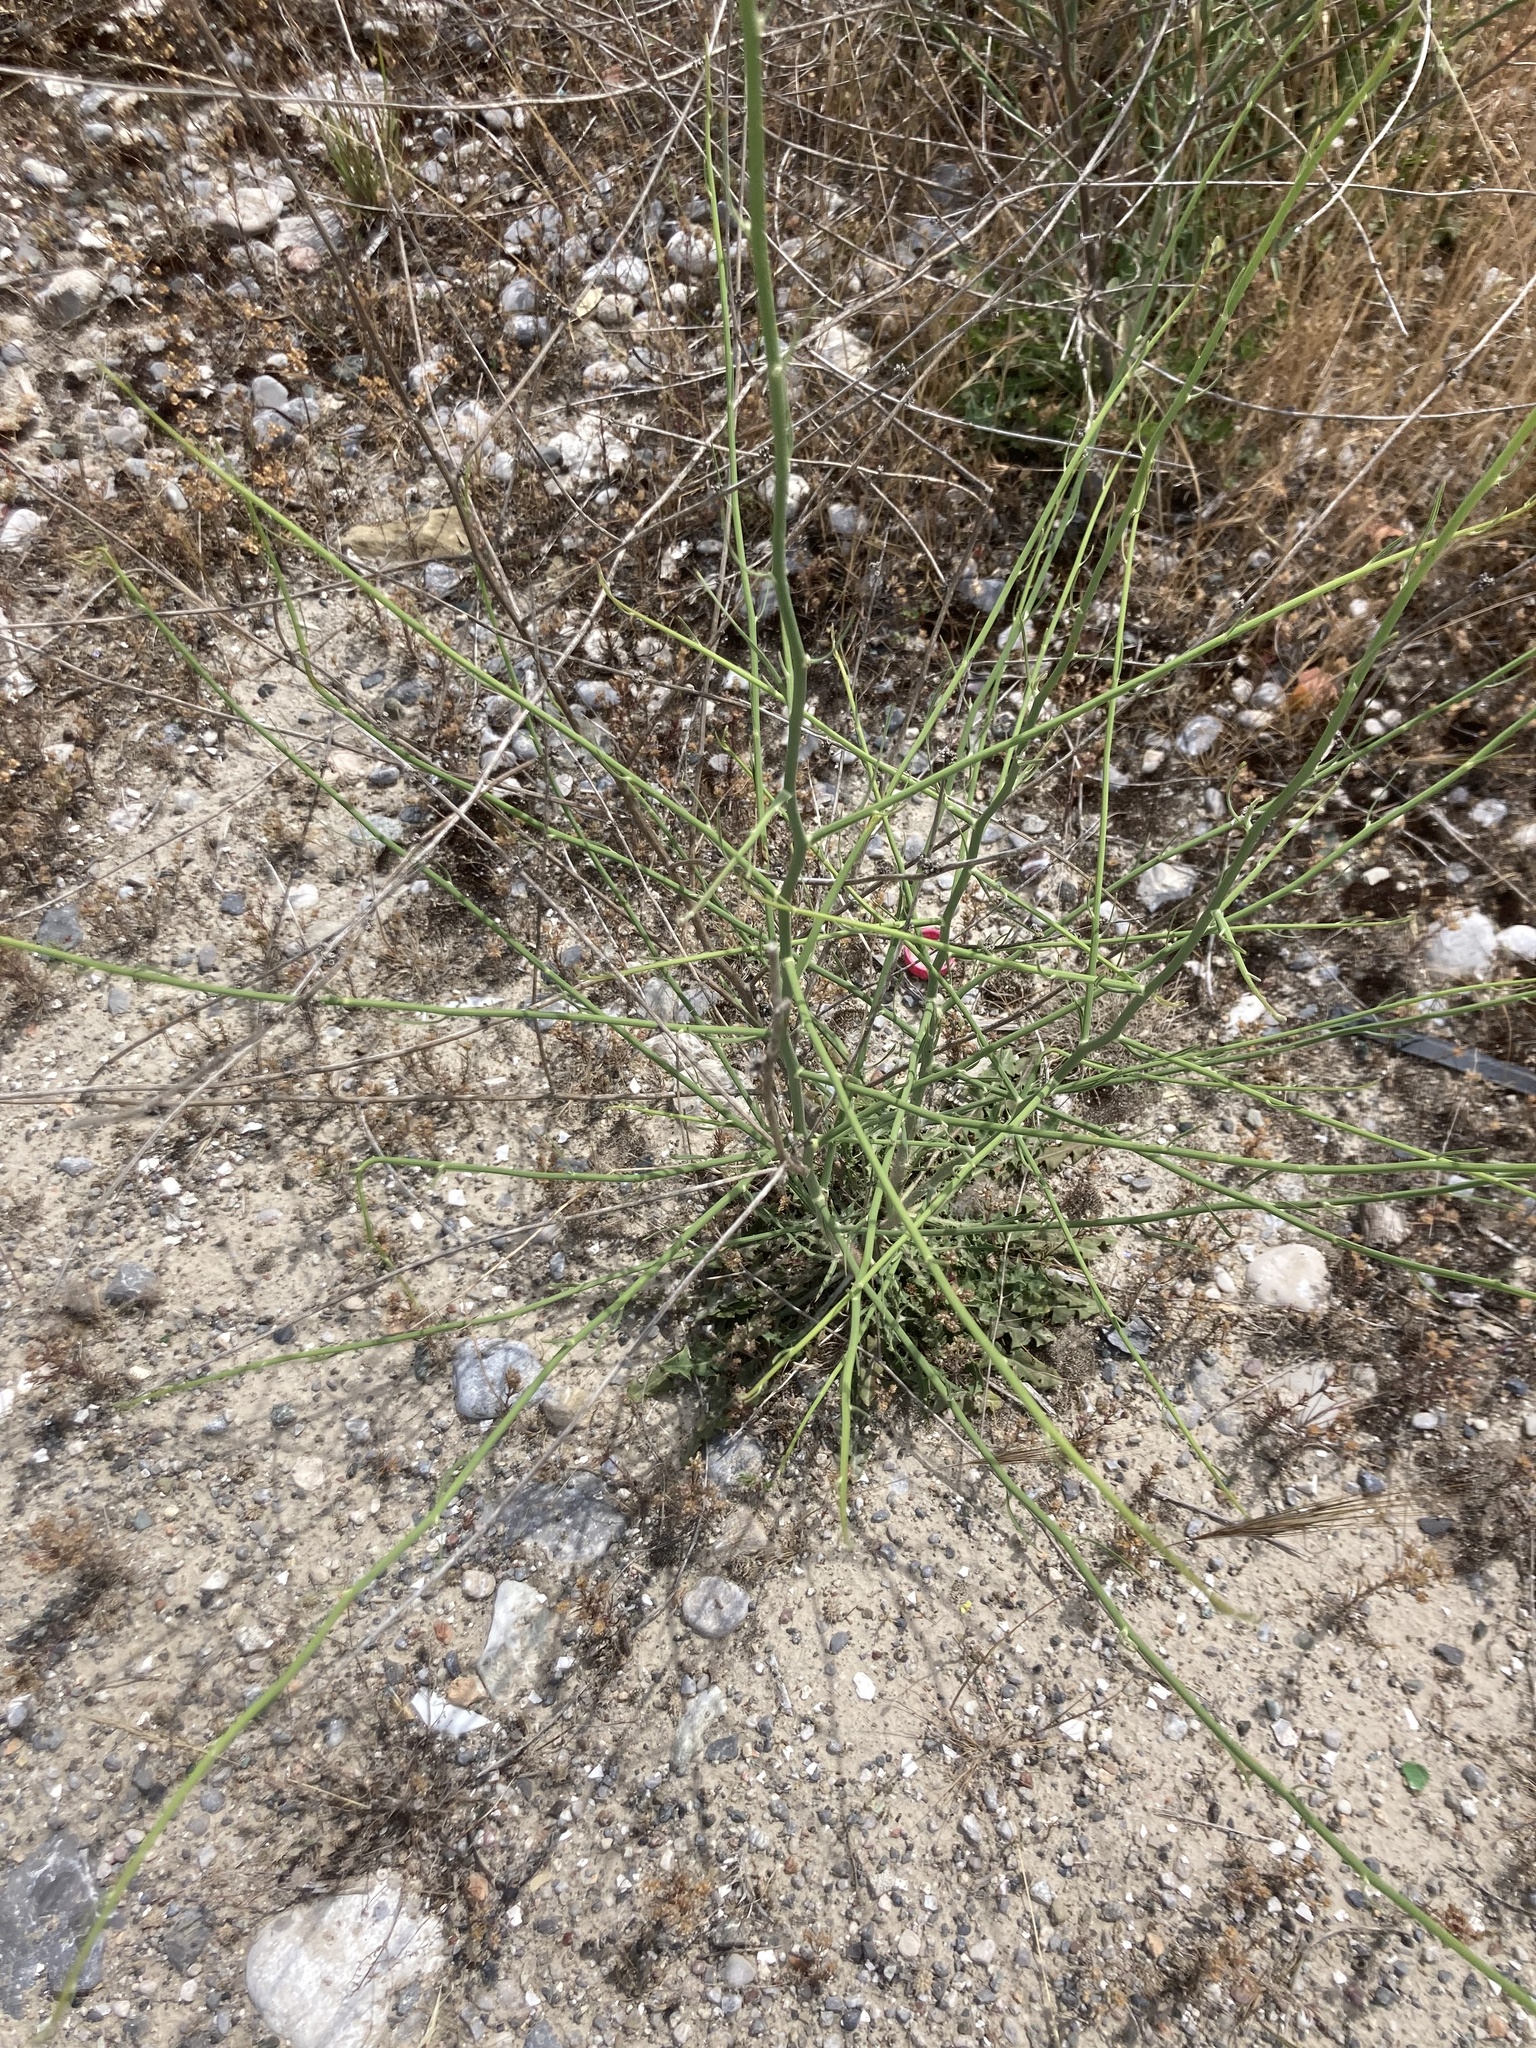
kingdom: Plantae
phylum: Tracheophyta
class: Magnoliopsida
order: Asterales
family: Asteraceae
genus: Chondrilla
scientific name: Chondrilla juncea
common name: Skeleton weed
